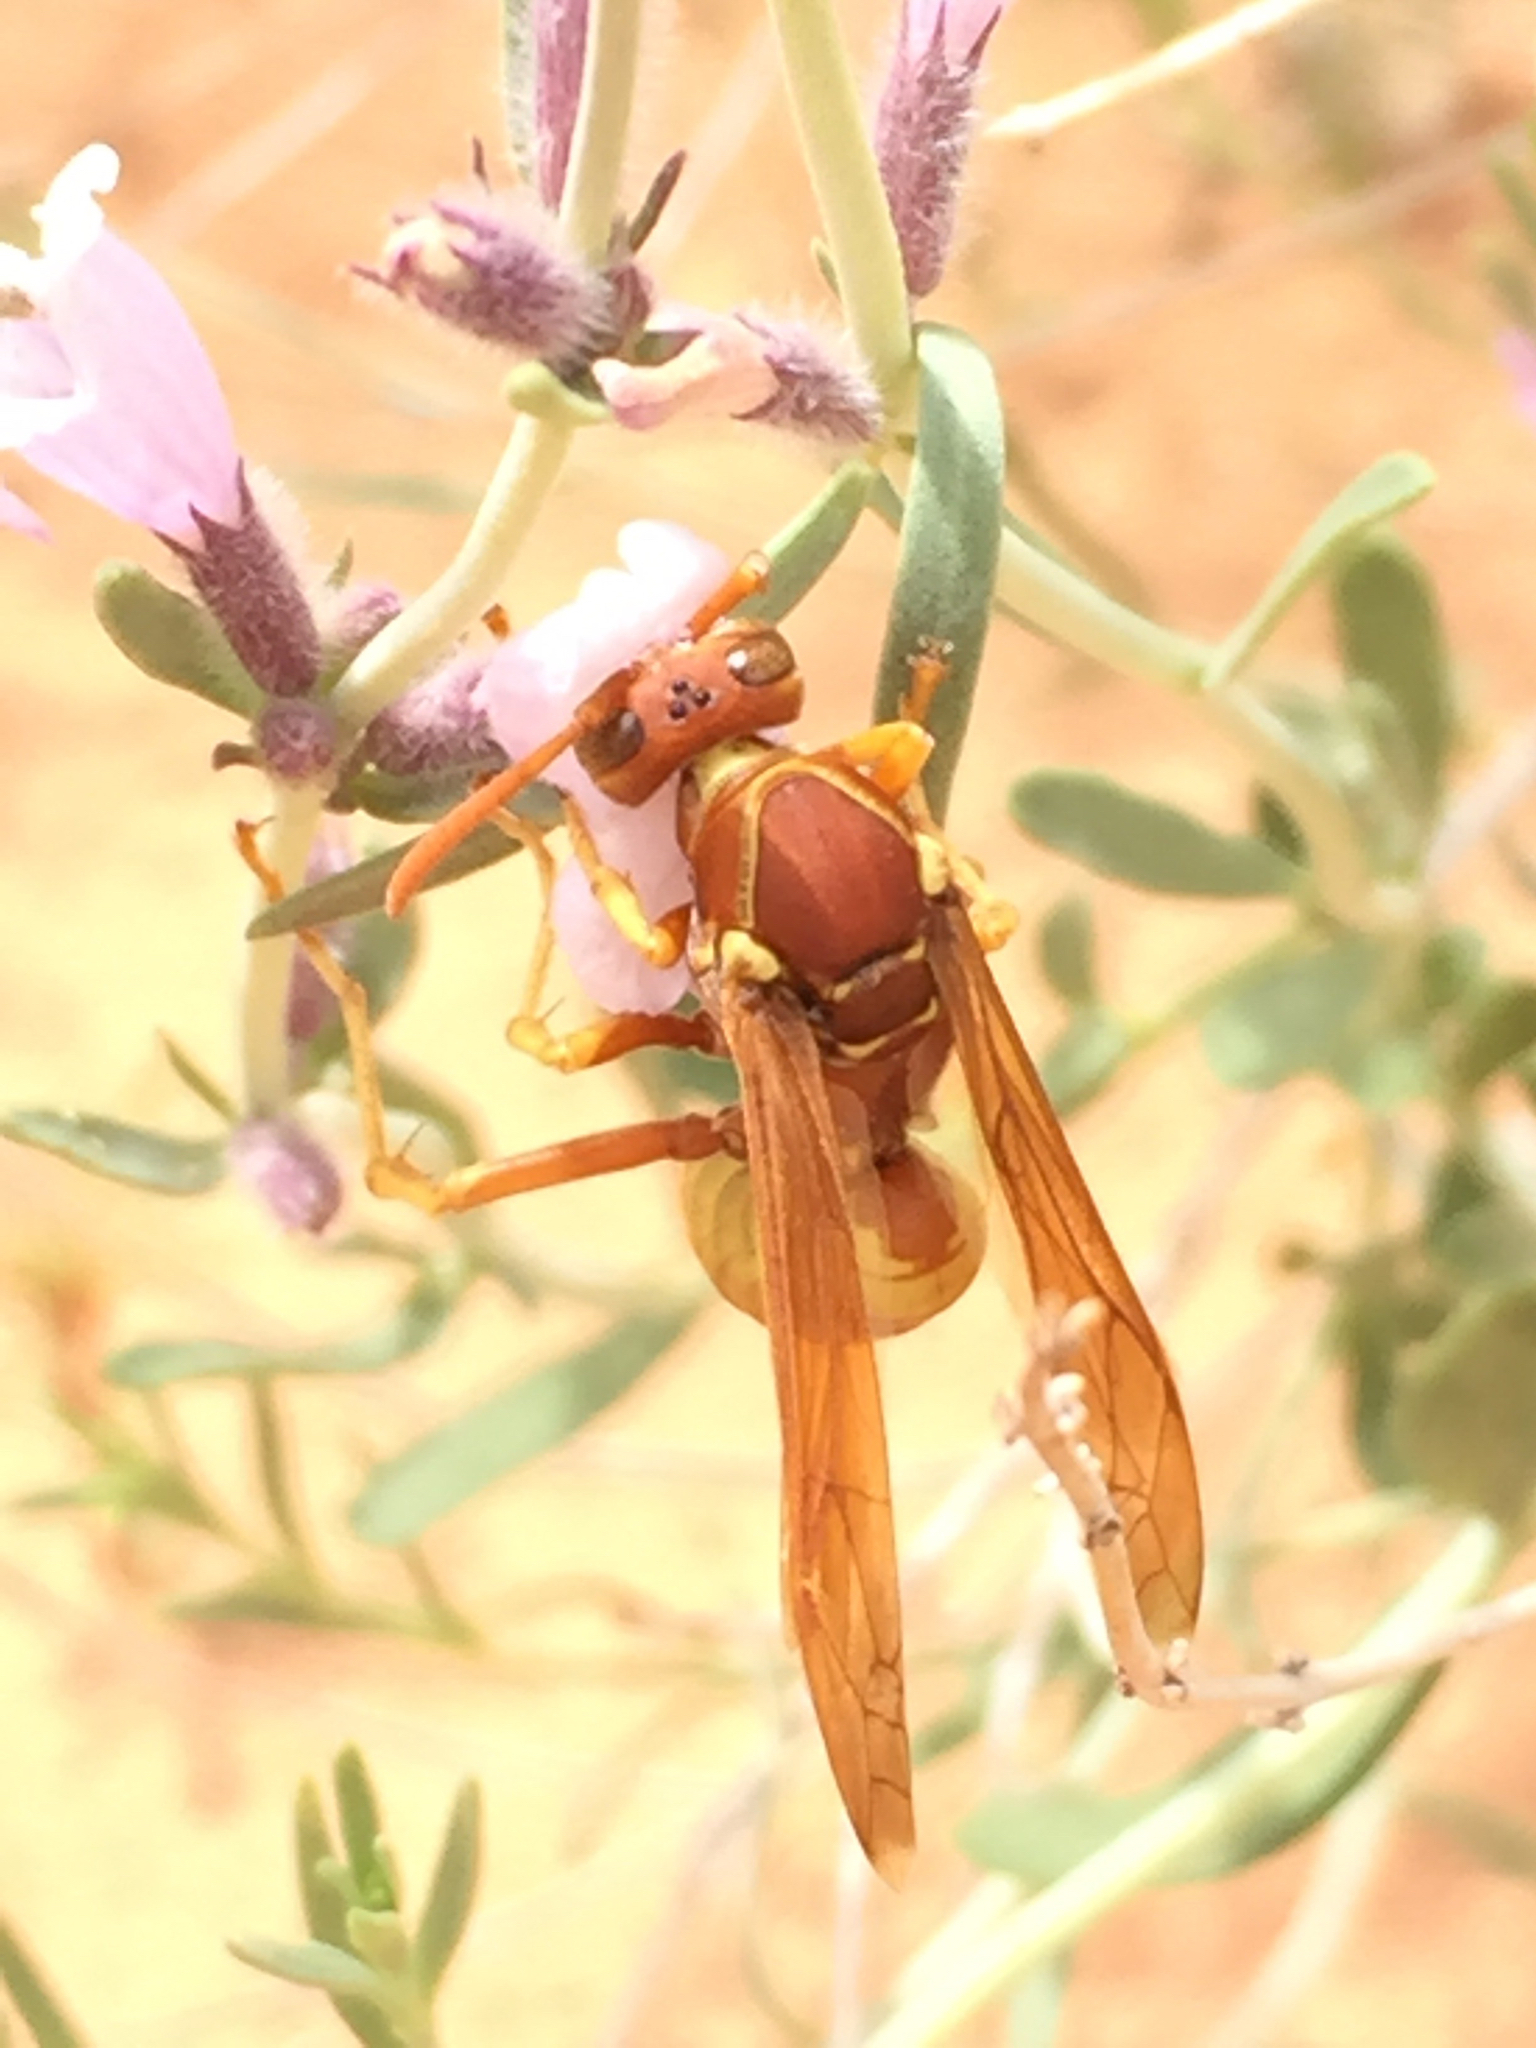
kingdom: Animalia
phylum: Arthropoda
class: Insecta
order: Hymenoptera
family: Eumenidae
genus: Polistes
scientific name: Polistes aurifer
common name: Paper wasp
